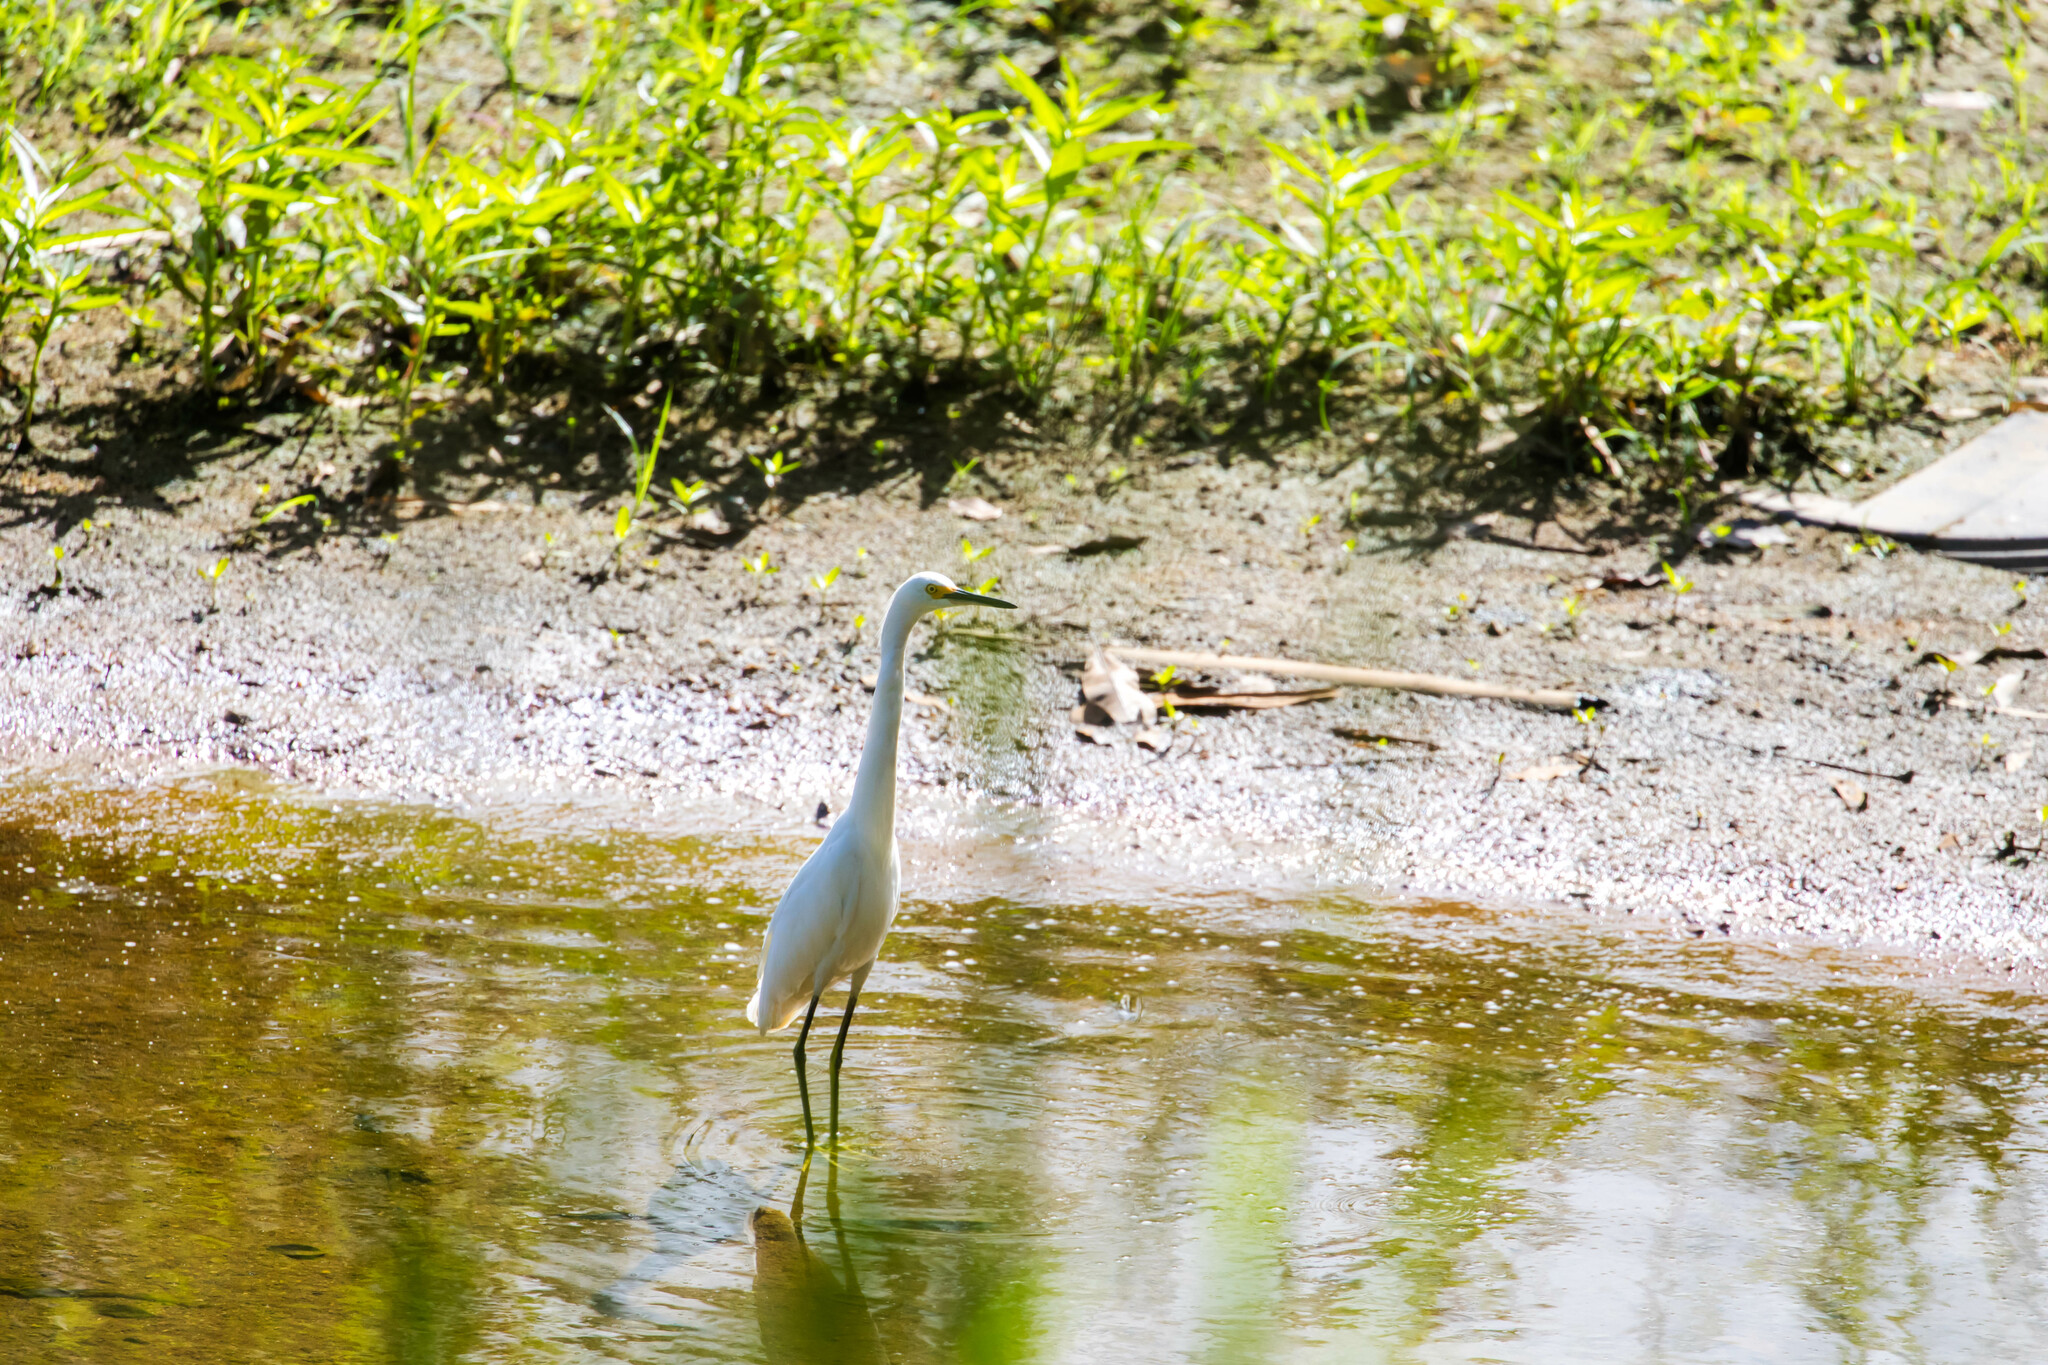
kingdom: Animalia
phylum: Chordata
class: Aves
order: Pelecaniformes
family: Ardeidae
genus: Egretta
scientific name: Egretta thula
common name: Snowy egret
